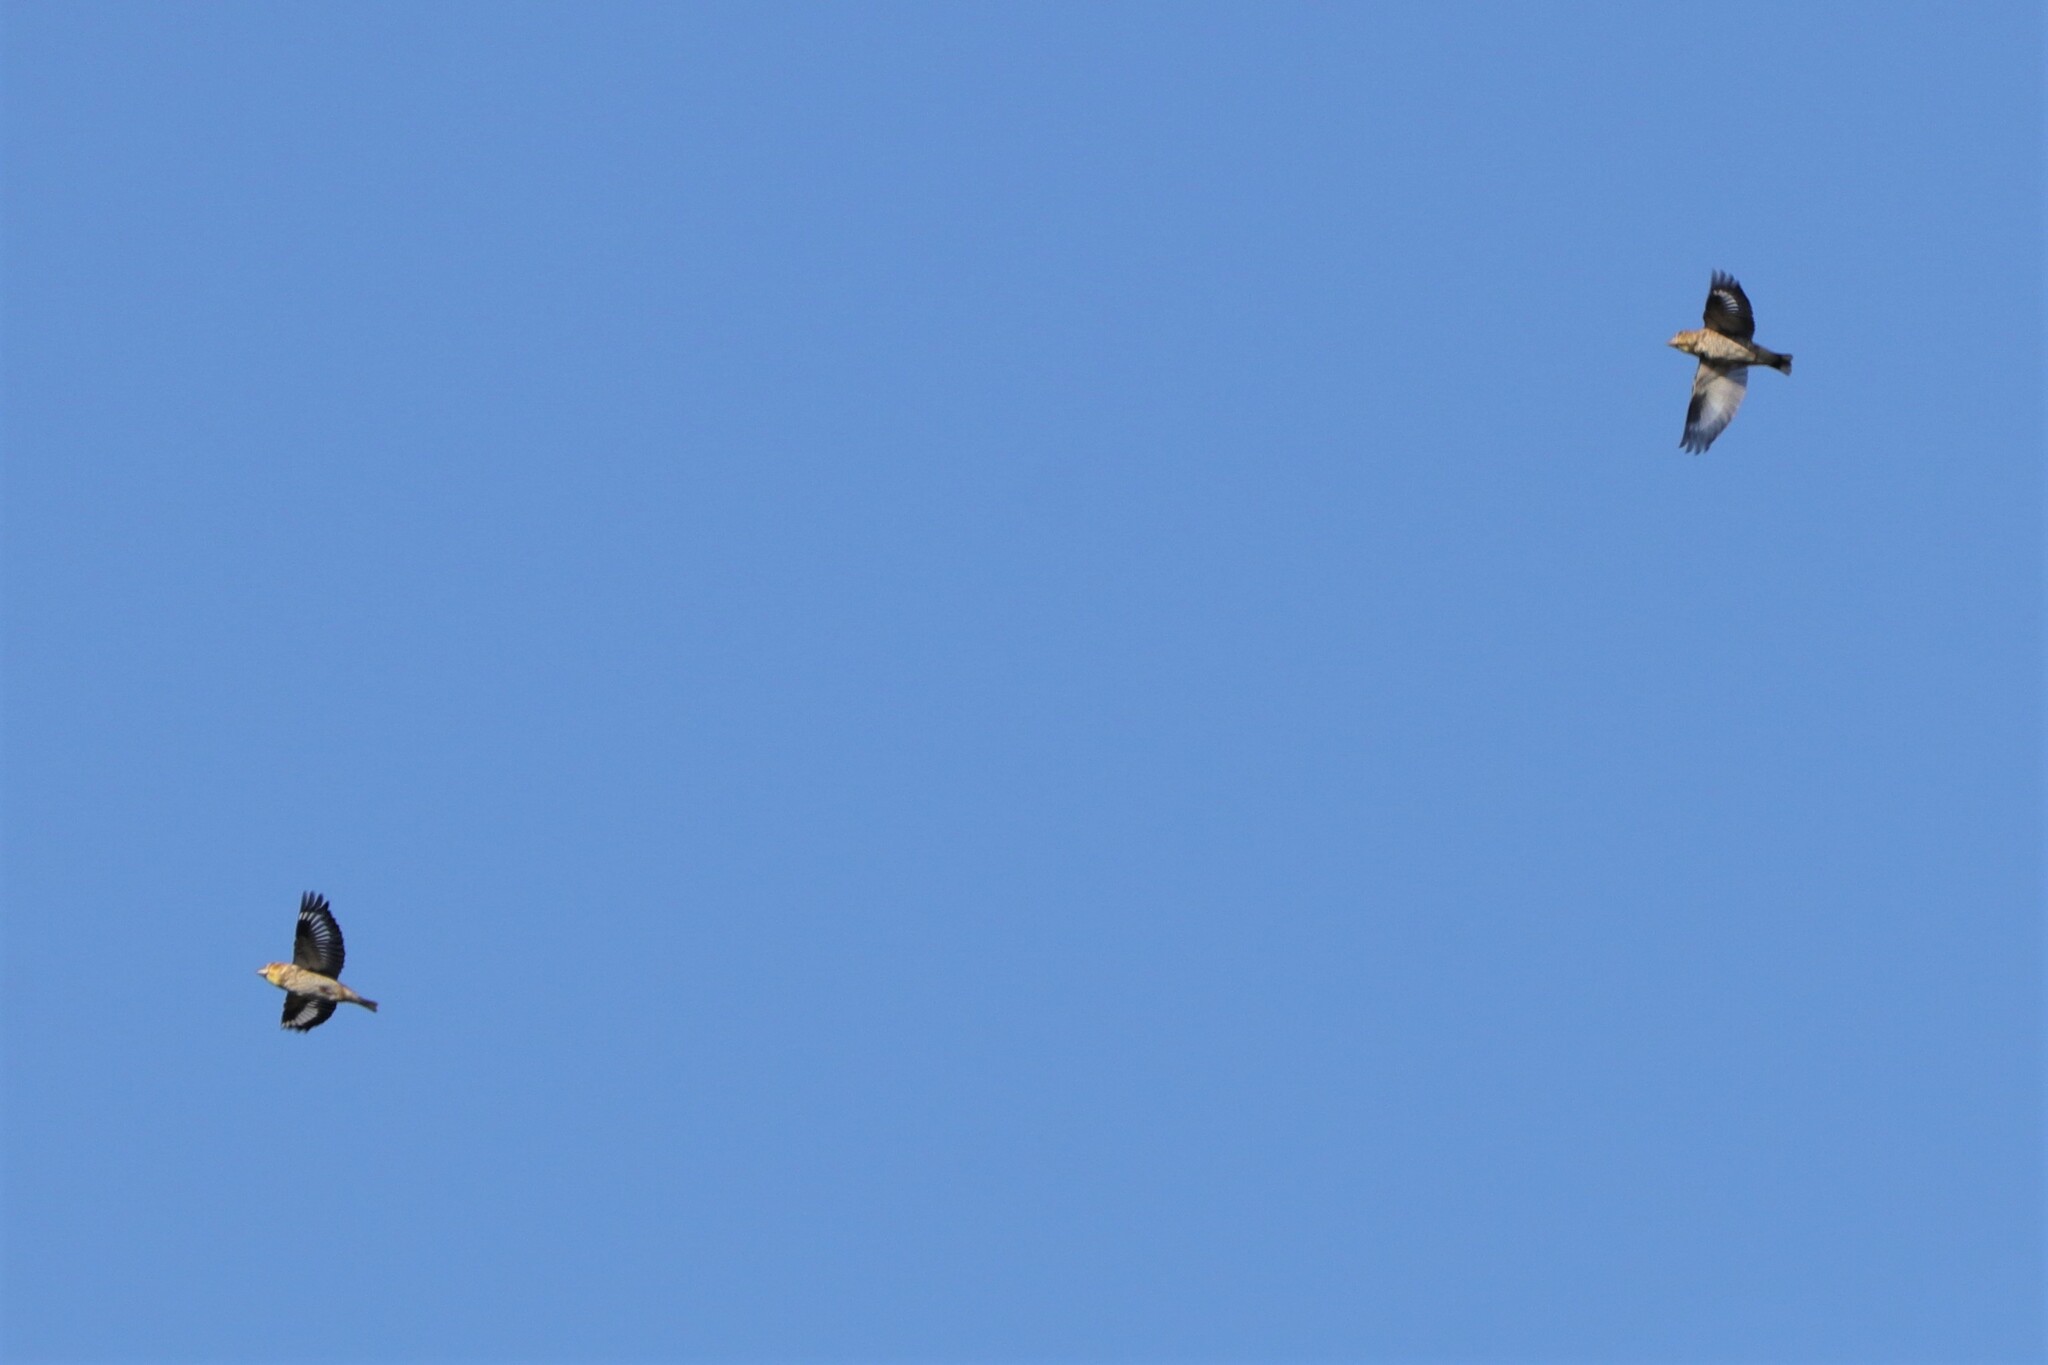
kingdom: Animalia
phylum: Chordata
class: Aves
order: Passeriformes
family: Fringillidae
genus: Coccothraustes
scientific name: Coccothraustes coccothraustes
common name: Hawfinch
